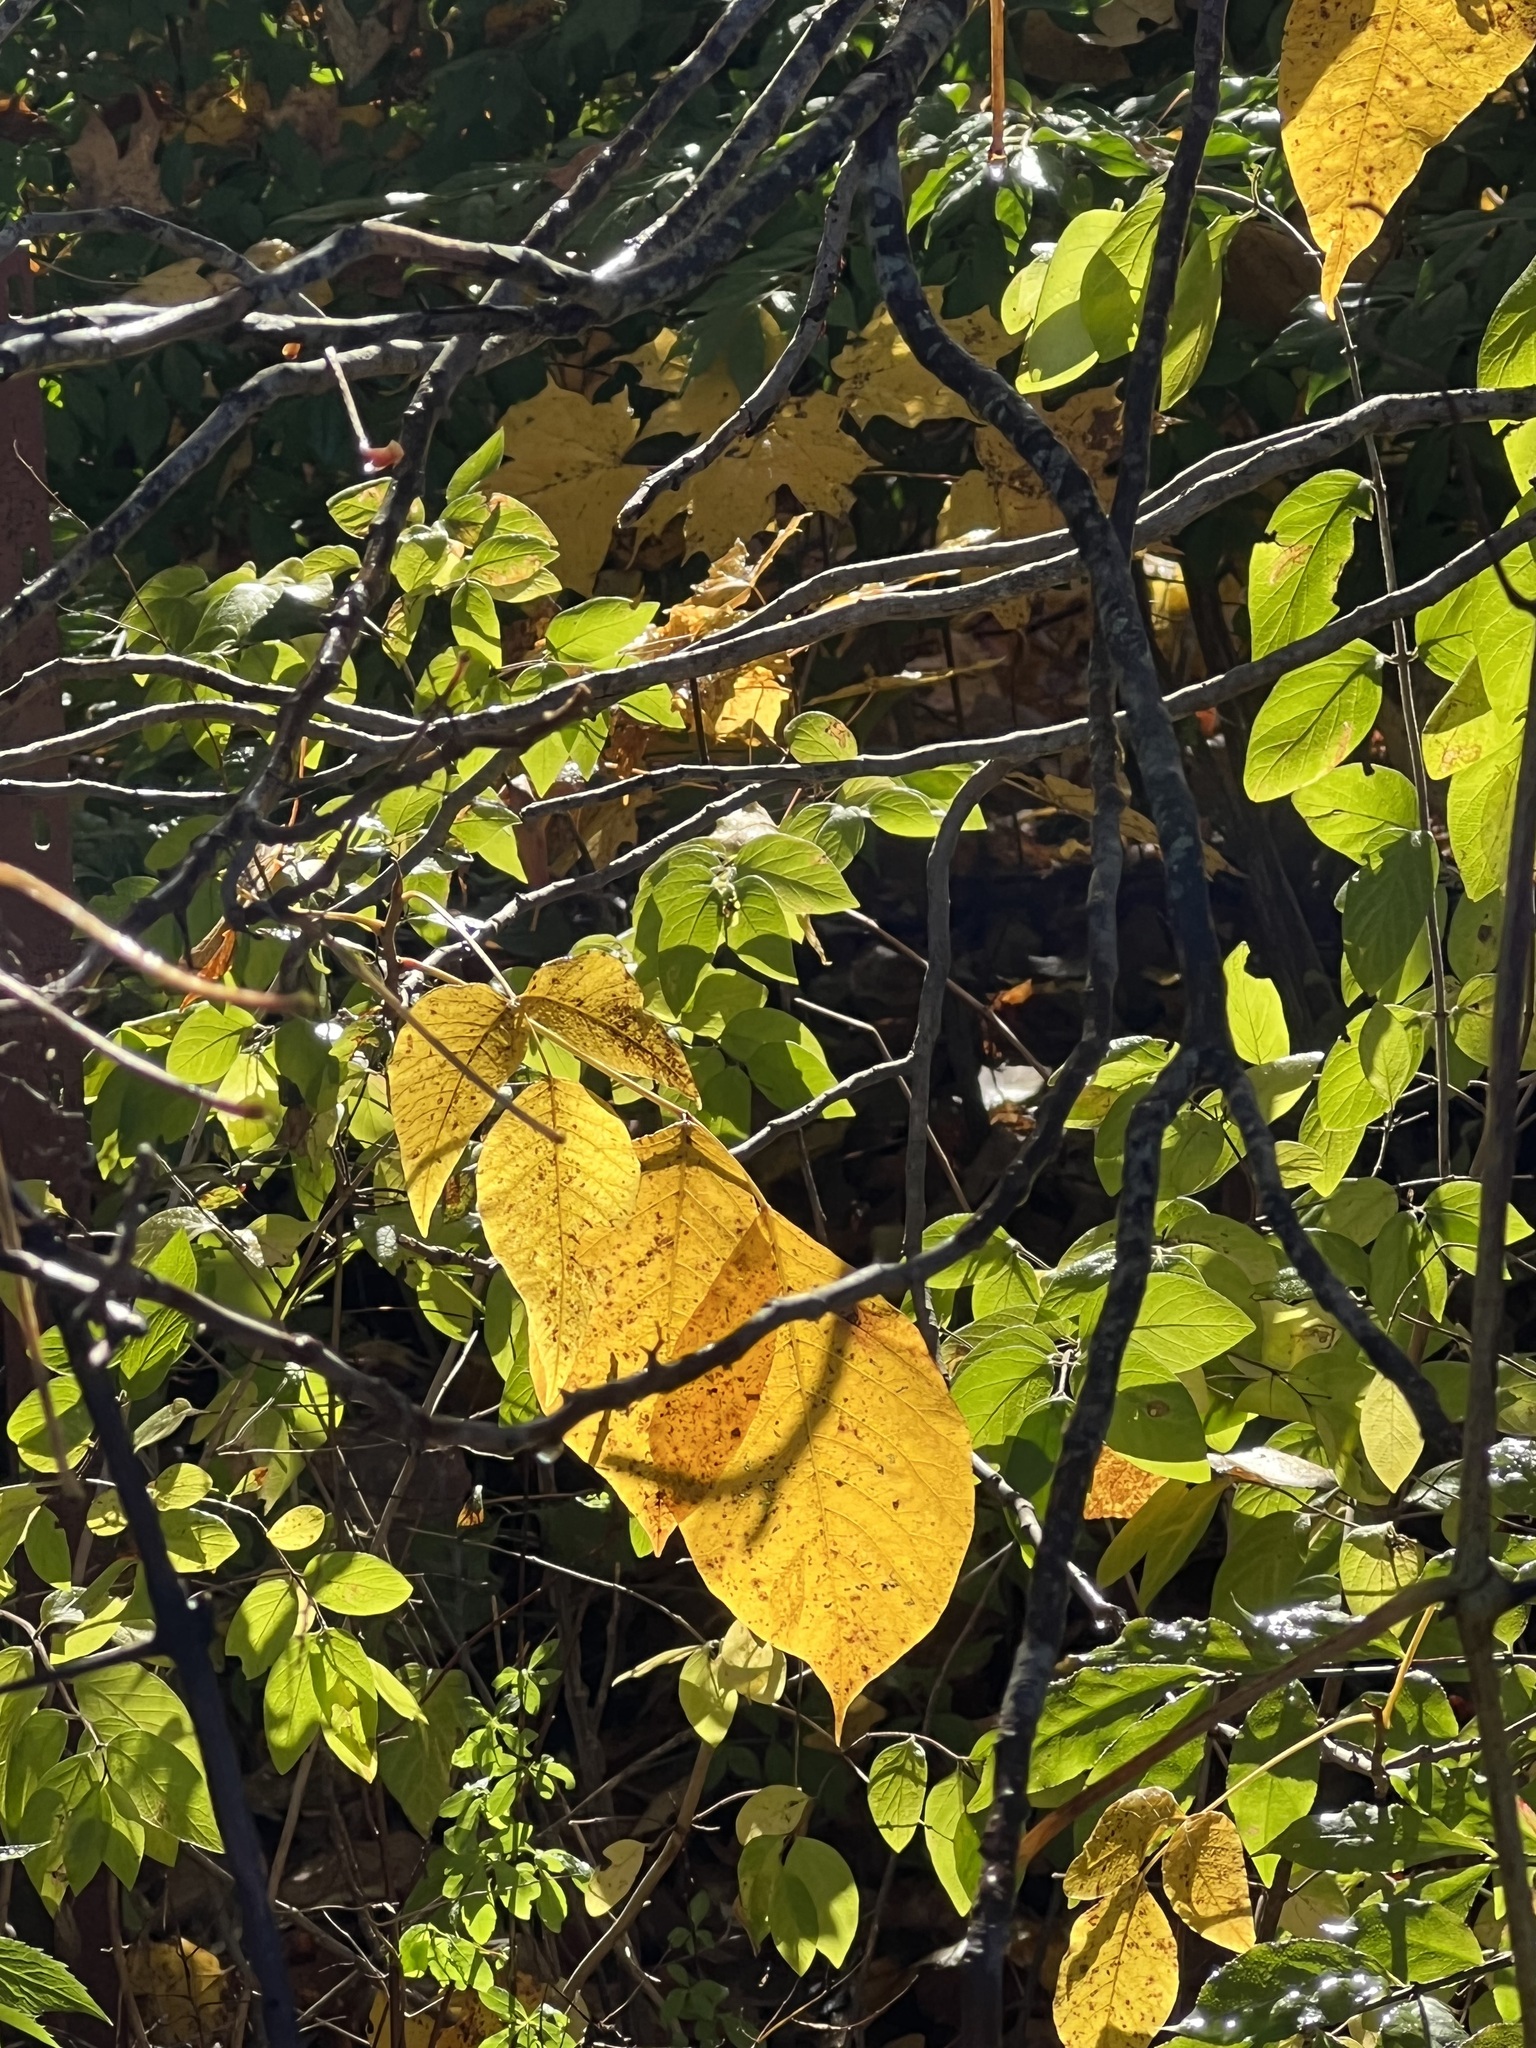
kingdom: Plantae
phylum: Tracheophyta
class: Magnoliopsida
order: Sapindales
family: Anacardiaceae
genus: Toxicodendron
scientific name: Toxicodendron radicans
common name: Poison ivy
